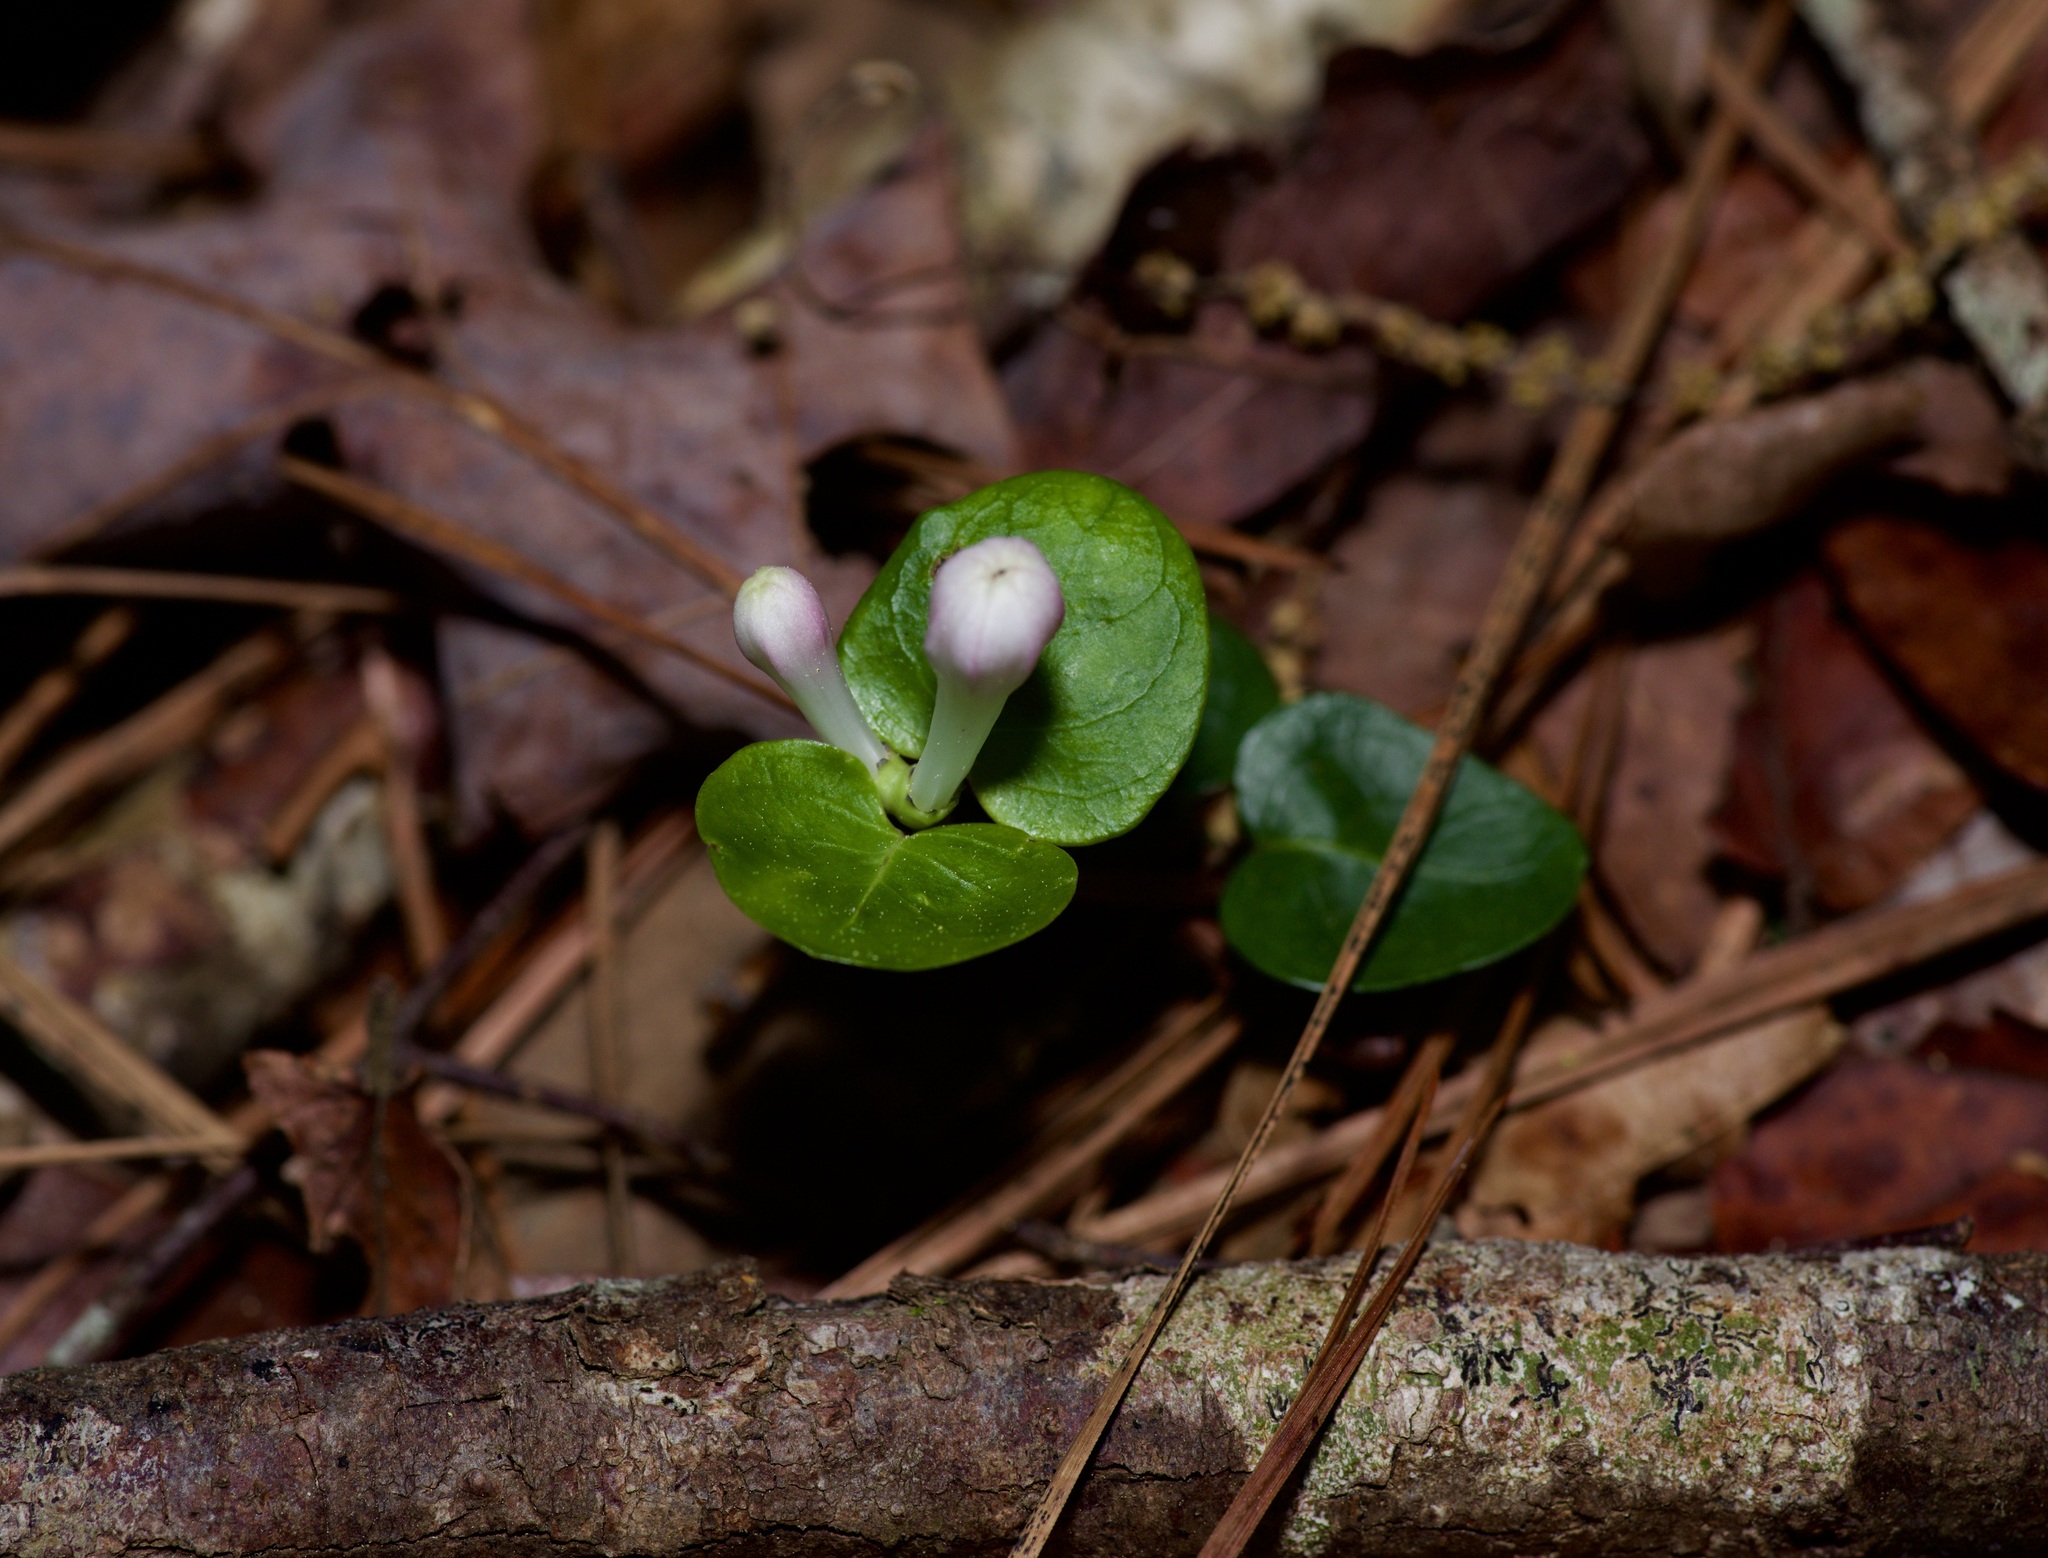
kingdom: Plantae
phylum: Tracheophyta
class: Magnoliopsida
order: Gentianales
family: Rubiaceae
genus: Mitchella
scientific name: Mitchella repens
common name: Partridge-berry
